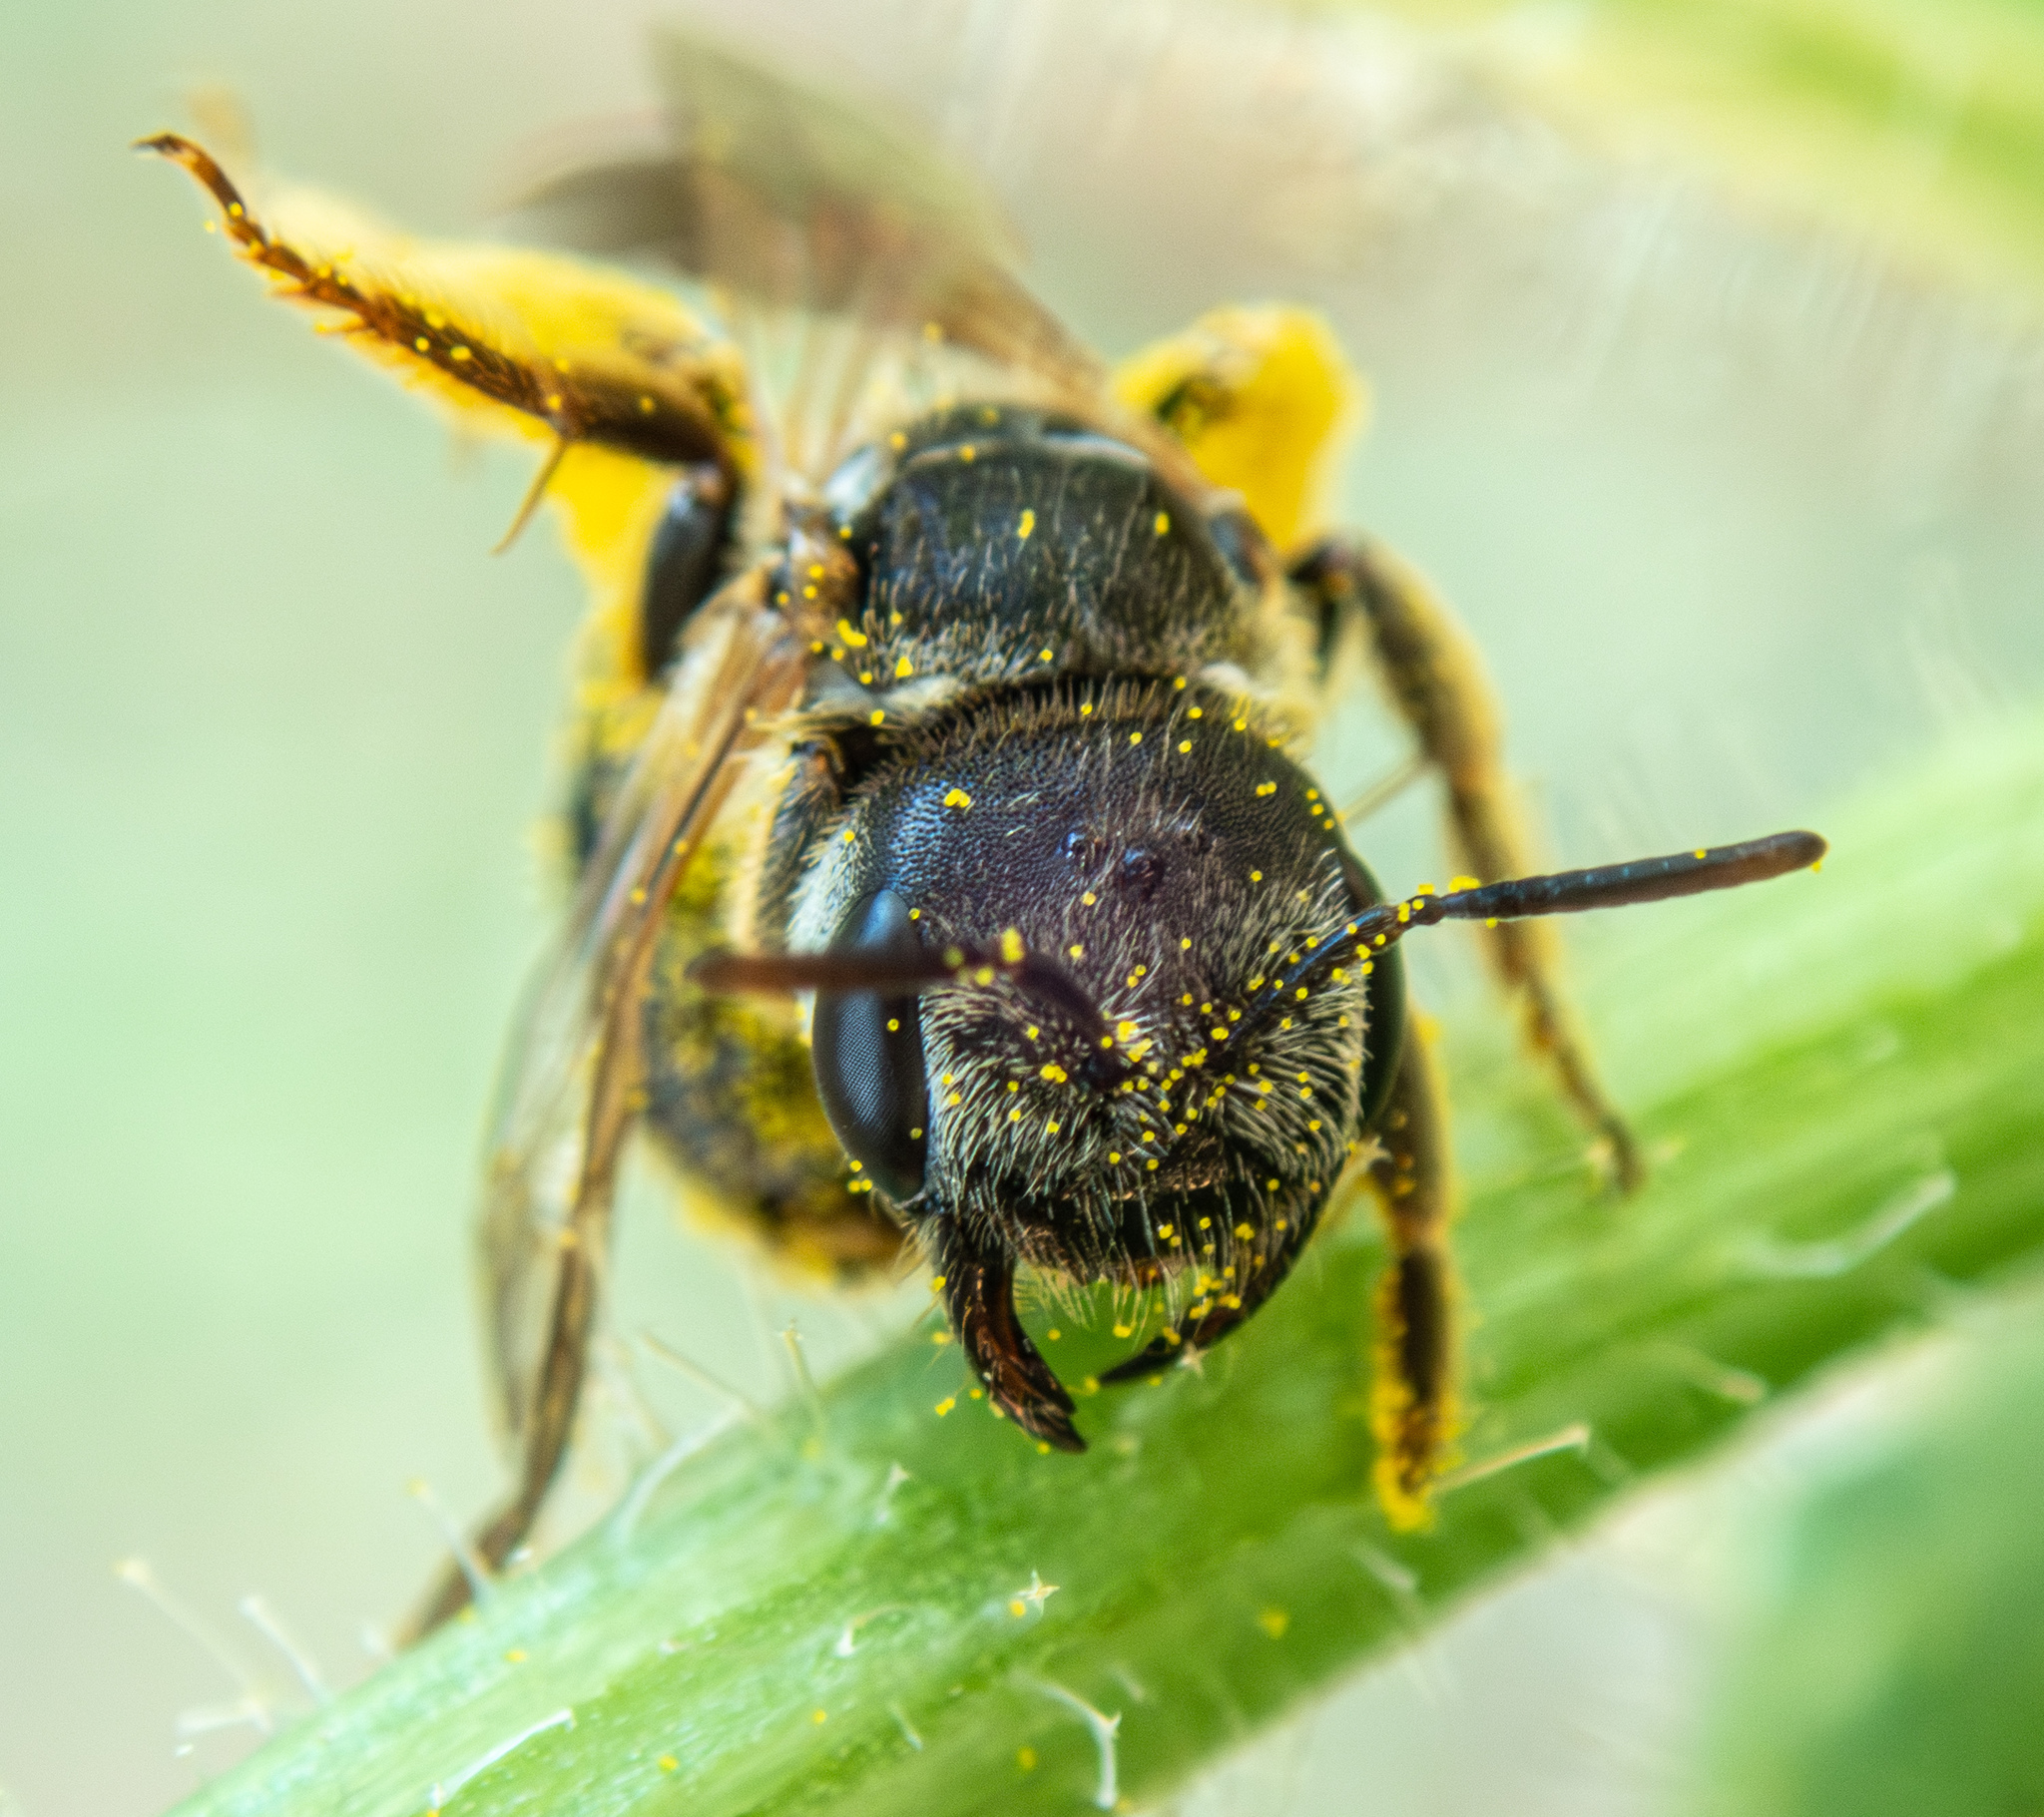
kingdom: Animalia
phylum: Arthropoda
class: Insecta
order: Hymenoptera
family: Halictidae
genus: Halictus
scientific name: Halictus ligatus
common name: Ligated furrow bee
